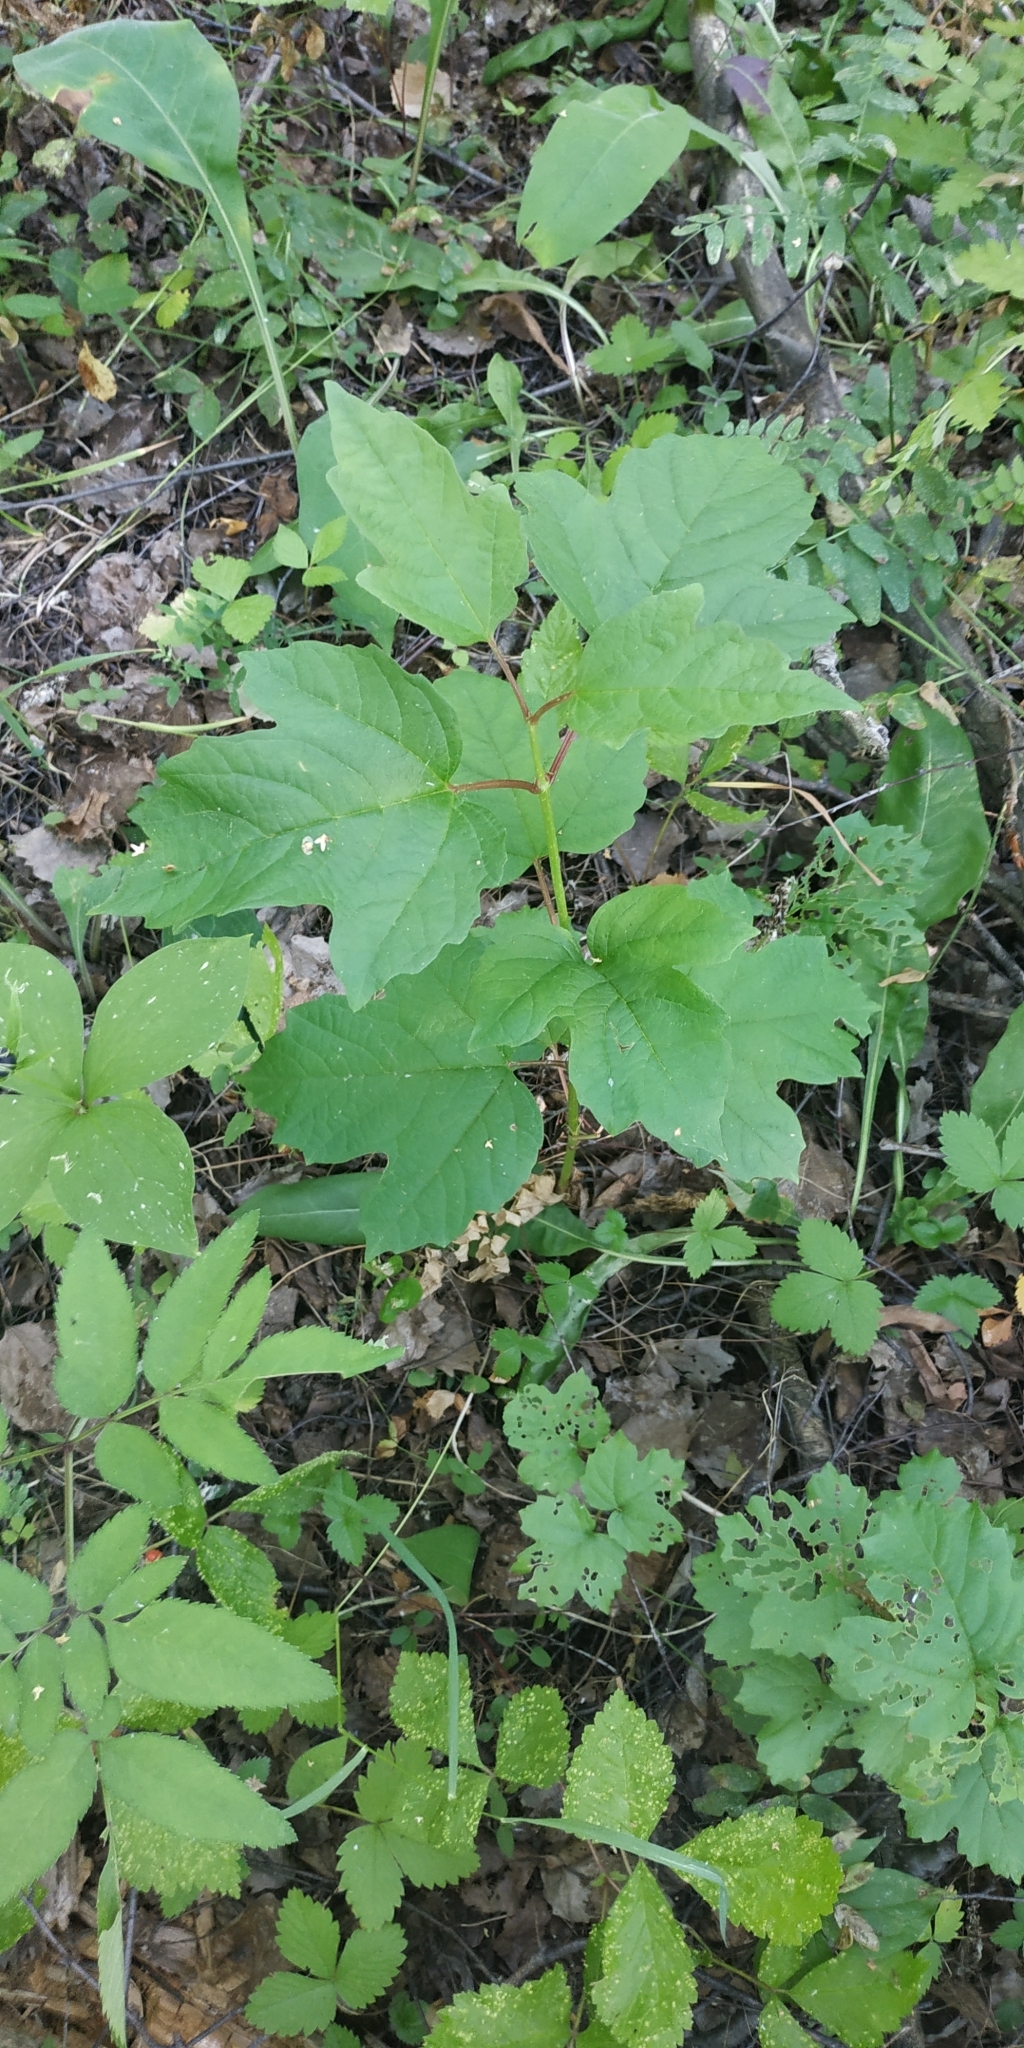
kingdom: Plantae
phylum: Tracheophyta
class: Magnoliopsida
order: Dipsacales
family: Viburnaceae
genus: Viburnum
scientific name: Viburnum opulus
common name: Guelder-rose
